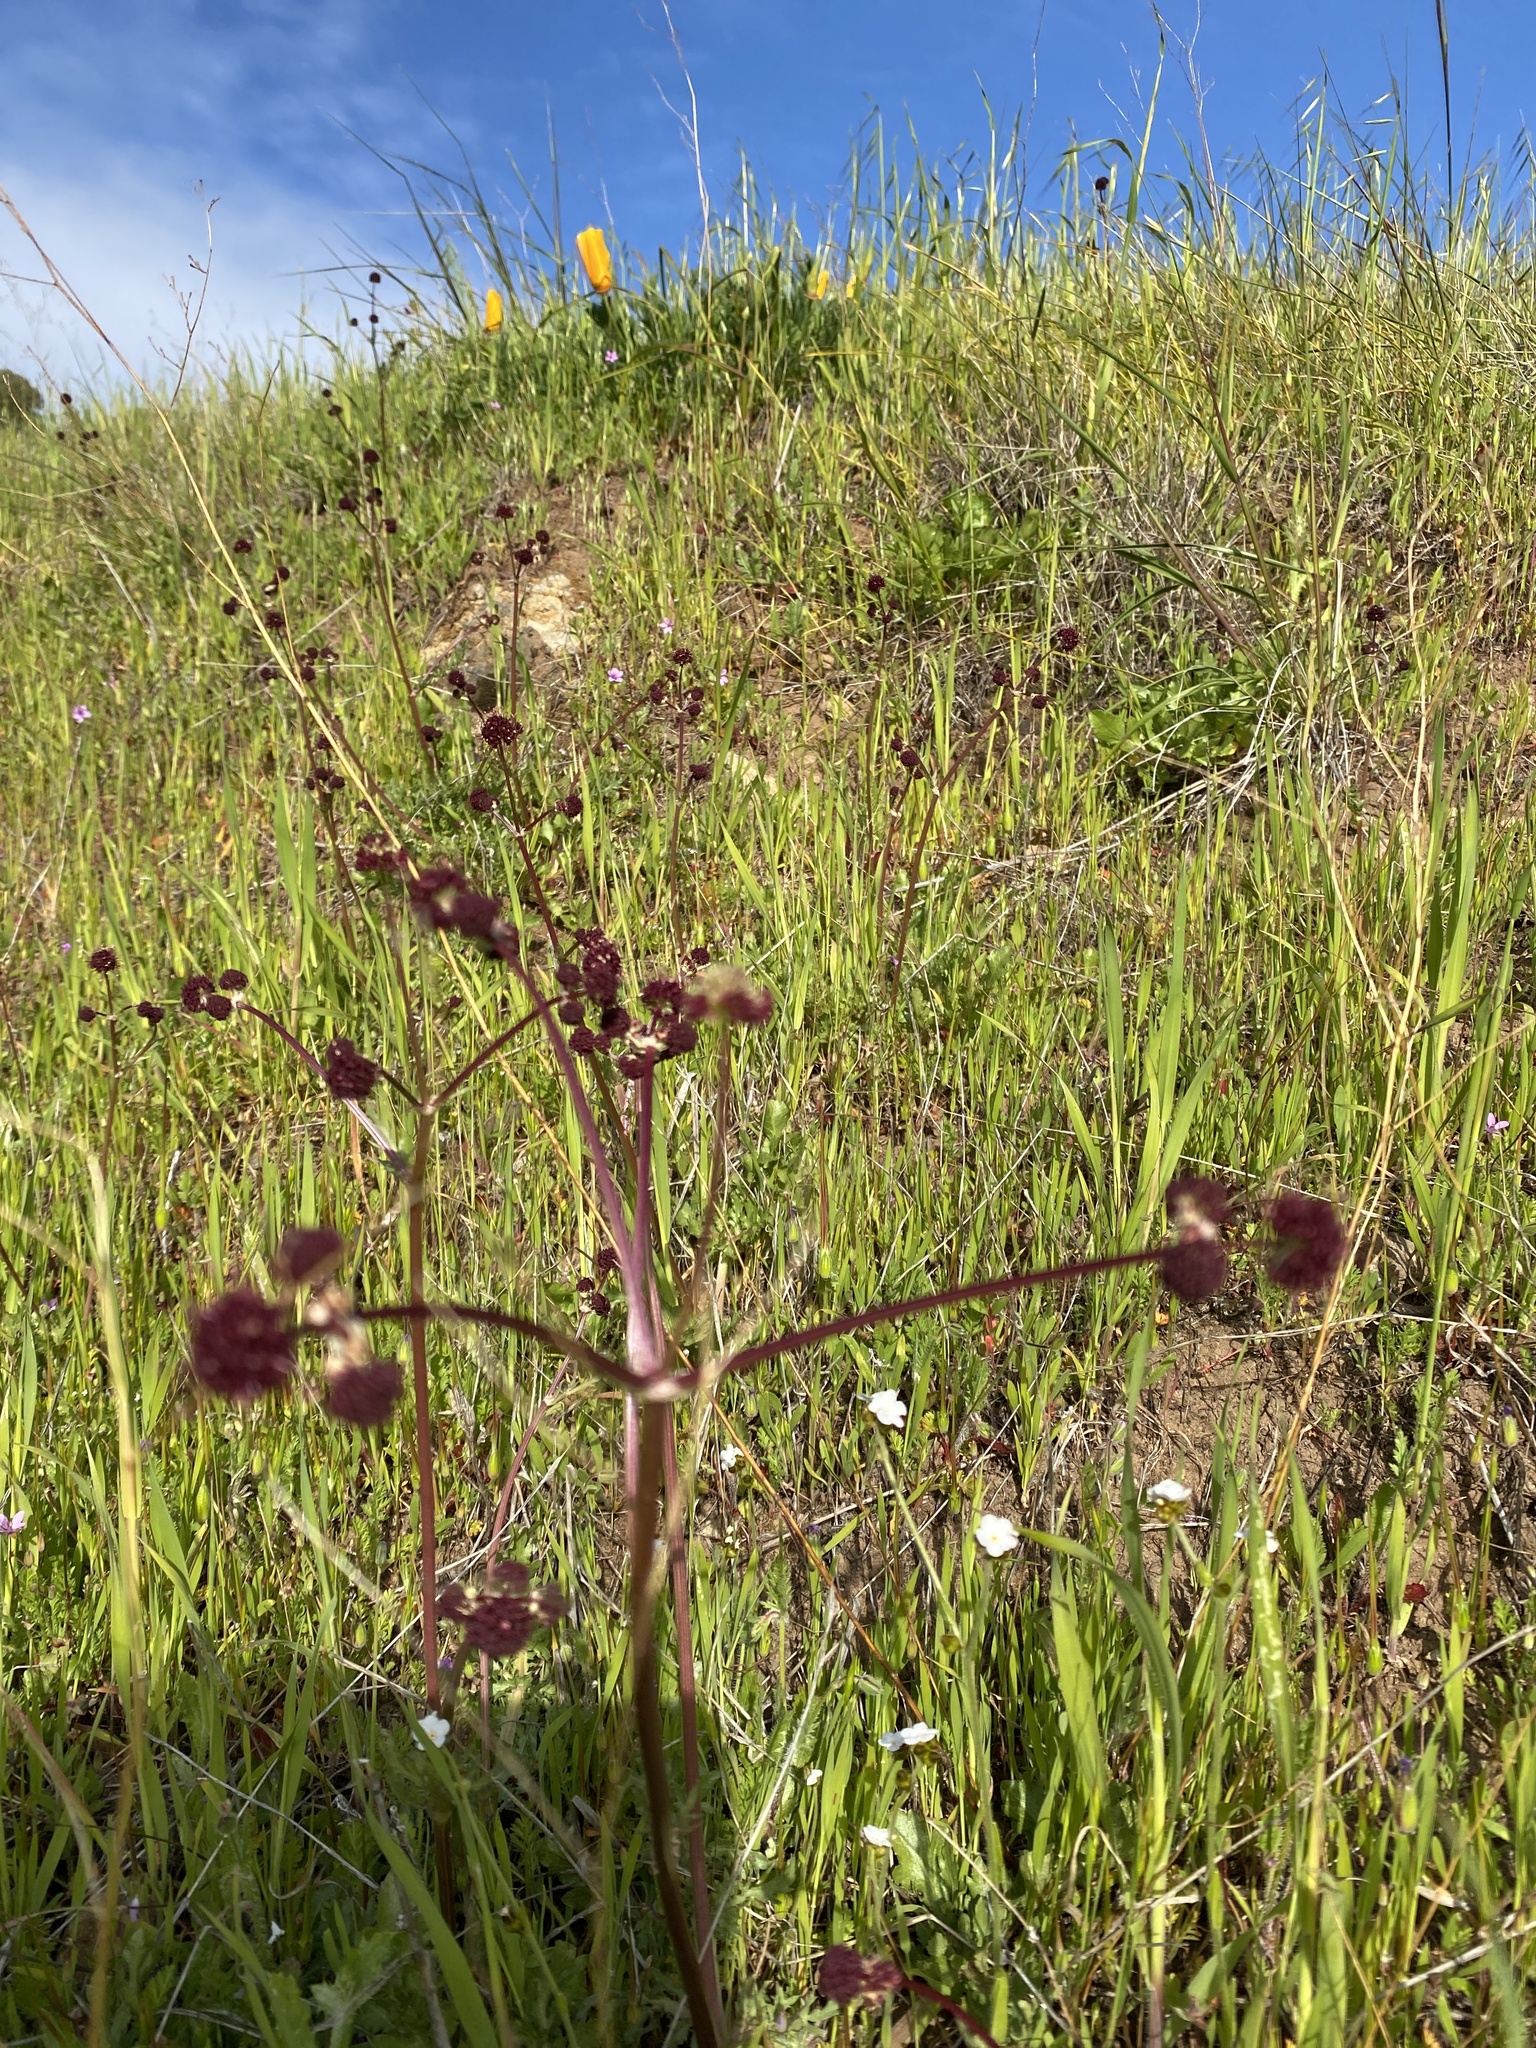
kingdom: Plantae
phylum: Tracheophyta
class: Magnoliopsida
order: Apiales
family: Apiaceae
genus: Sanicula
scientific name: Sanicula bipinnatifida
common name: Shoe-buttons
